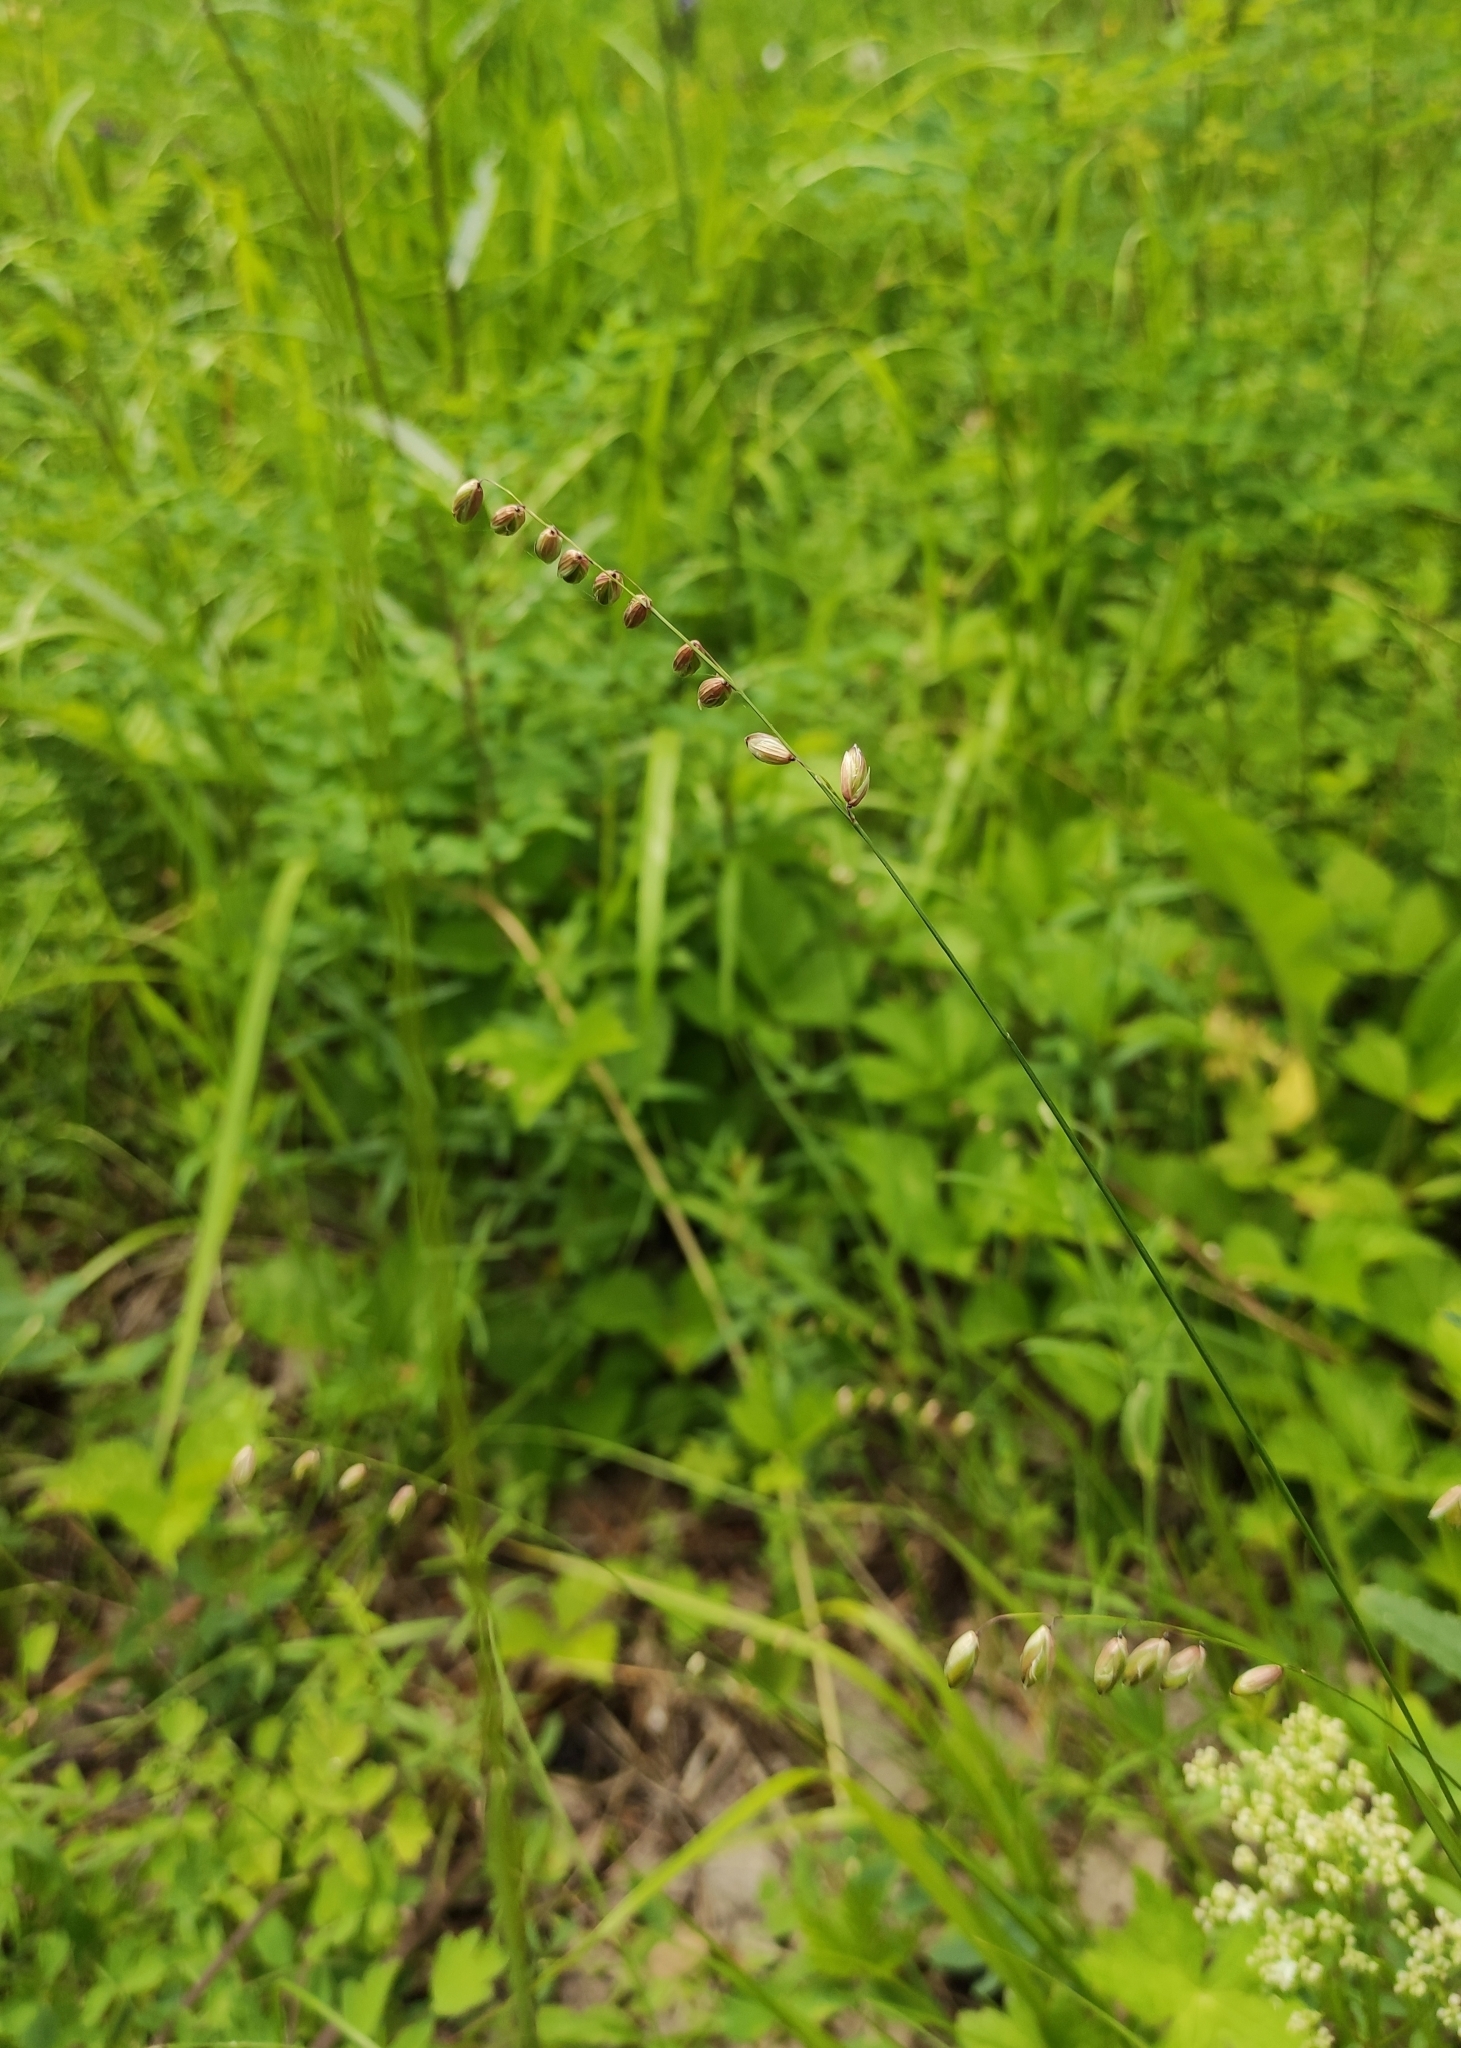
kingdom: Plantae
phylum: Tracheophyta
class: Liliopsida
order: Poales
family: Poaceae
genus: Melica
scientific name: Melica nutans
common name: Mountain melick
